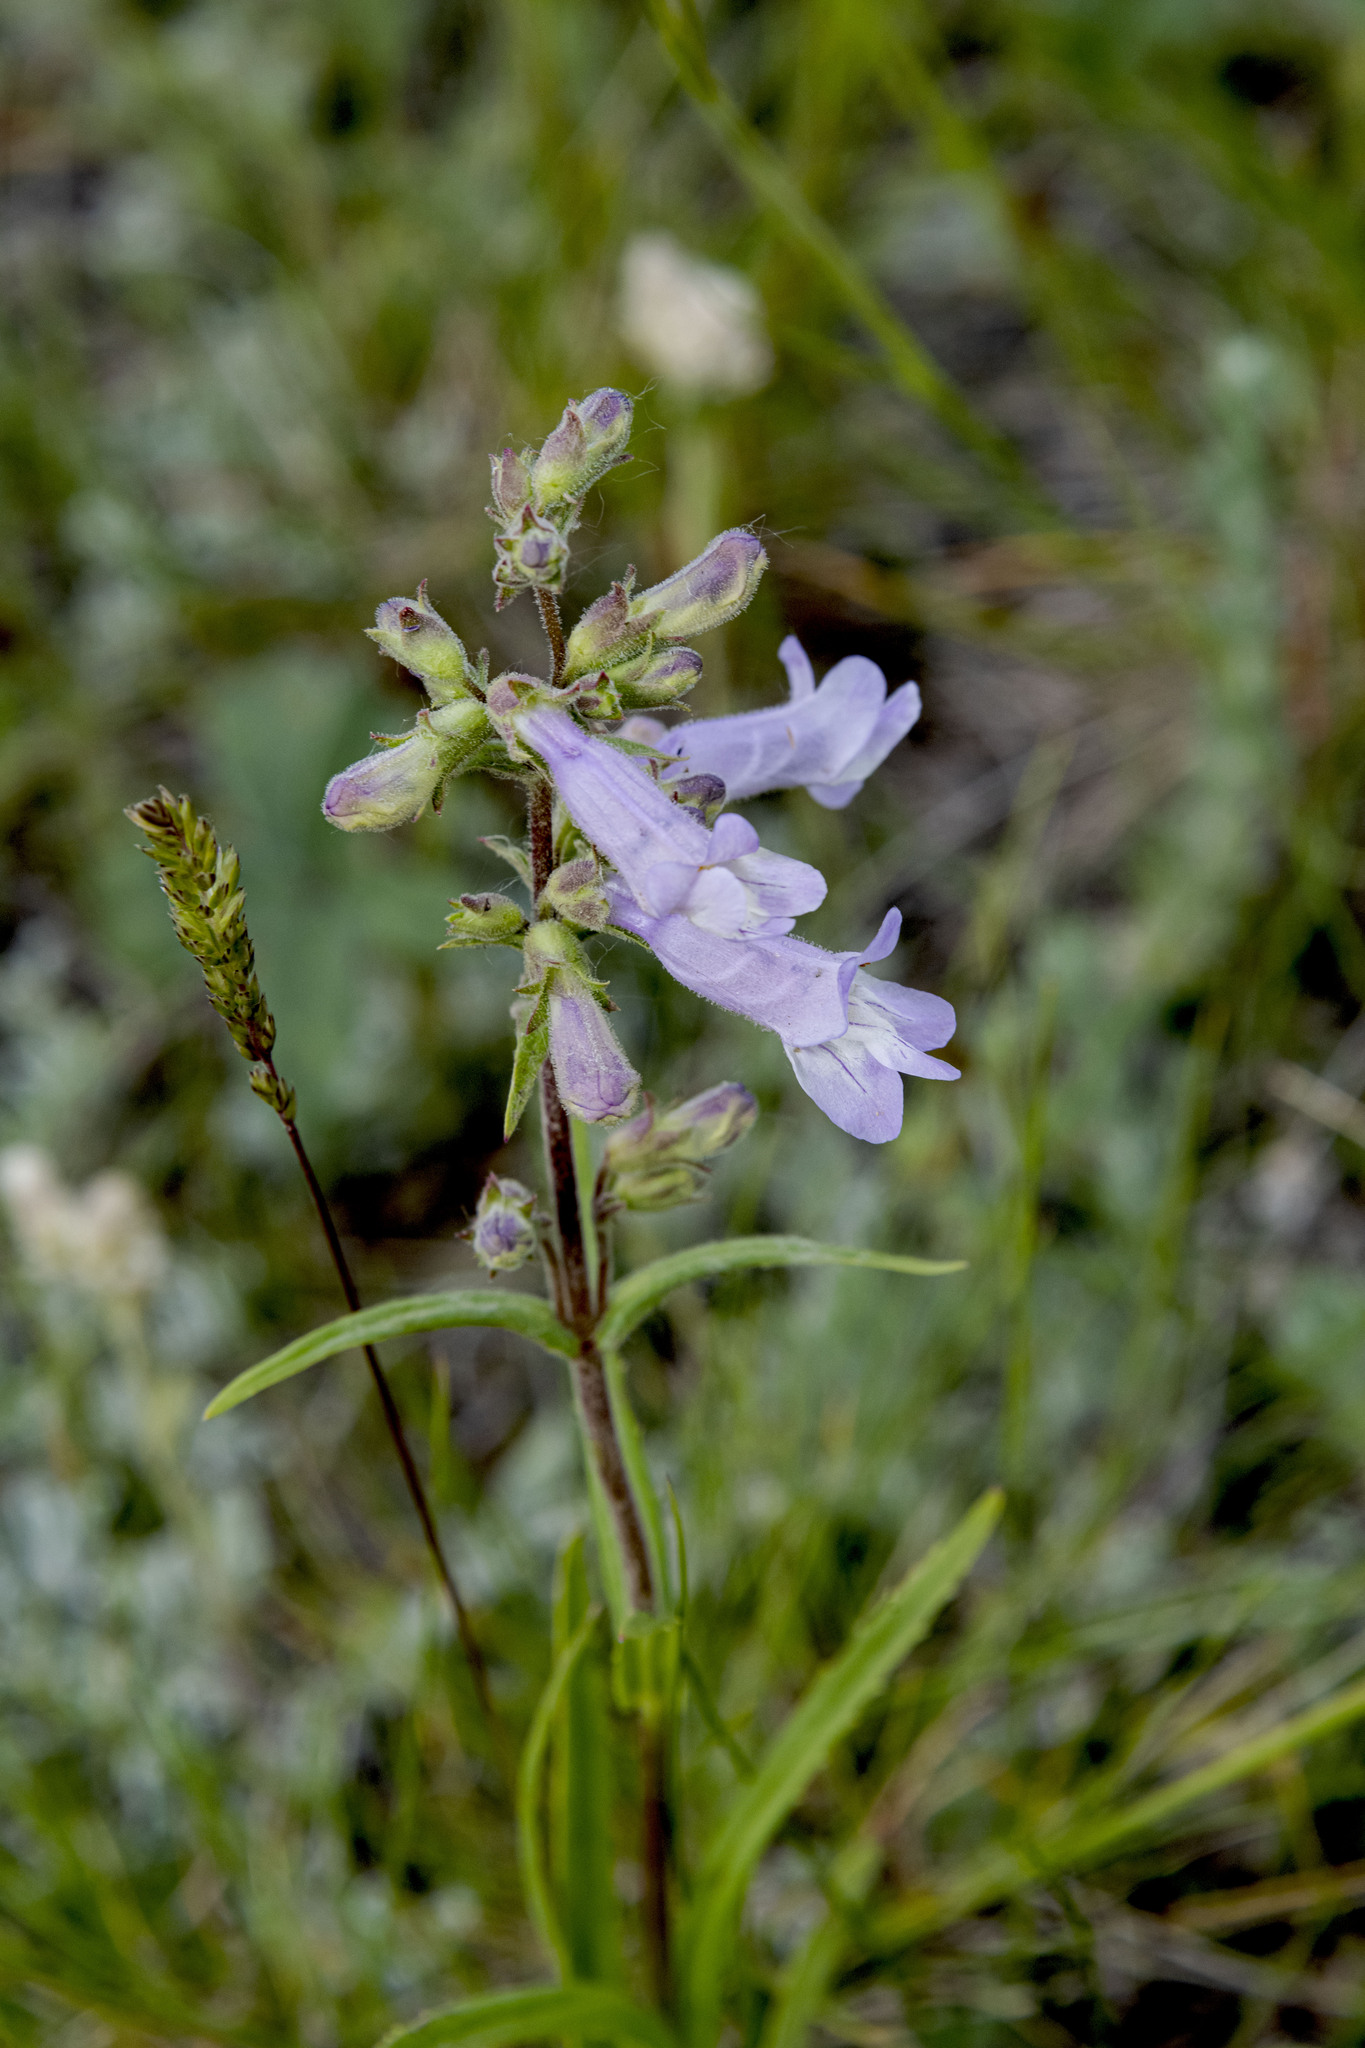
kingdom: Plantae
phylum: Tracheophyta
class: Magnoliopsida
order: Lamiales
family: Plantaginaceae
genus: Penstemon
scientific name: Penstemon gracilis
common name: Slender beardtongue
